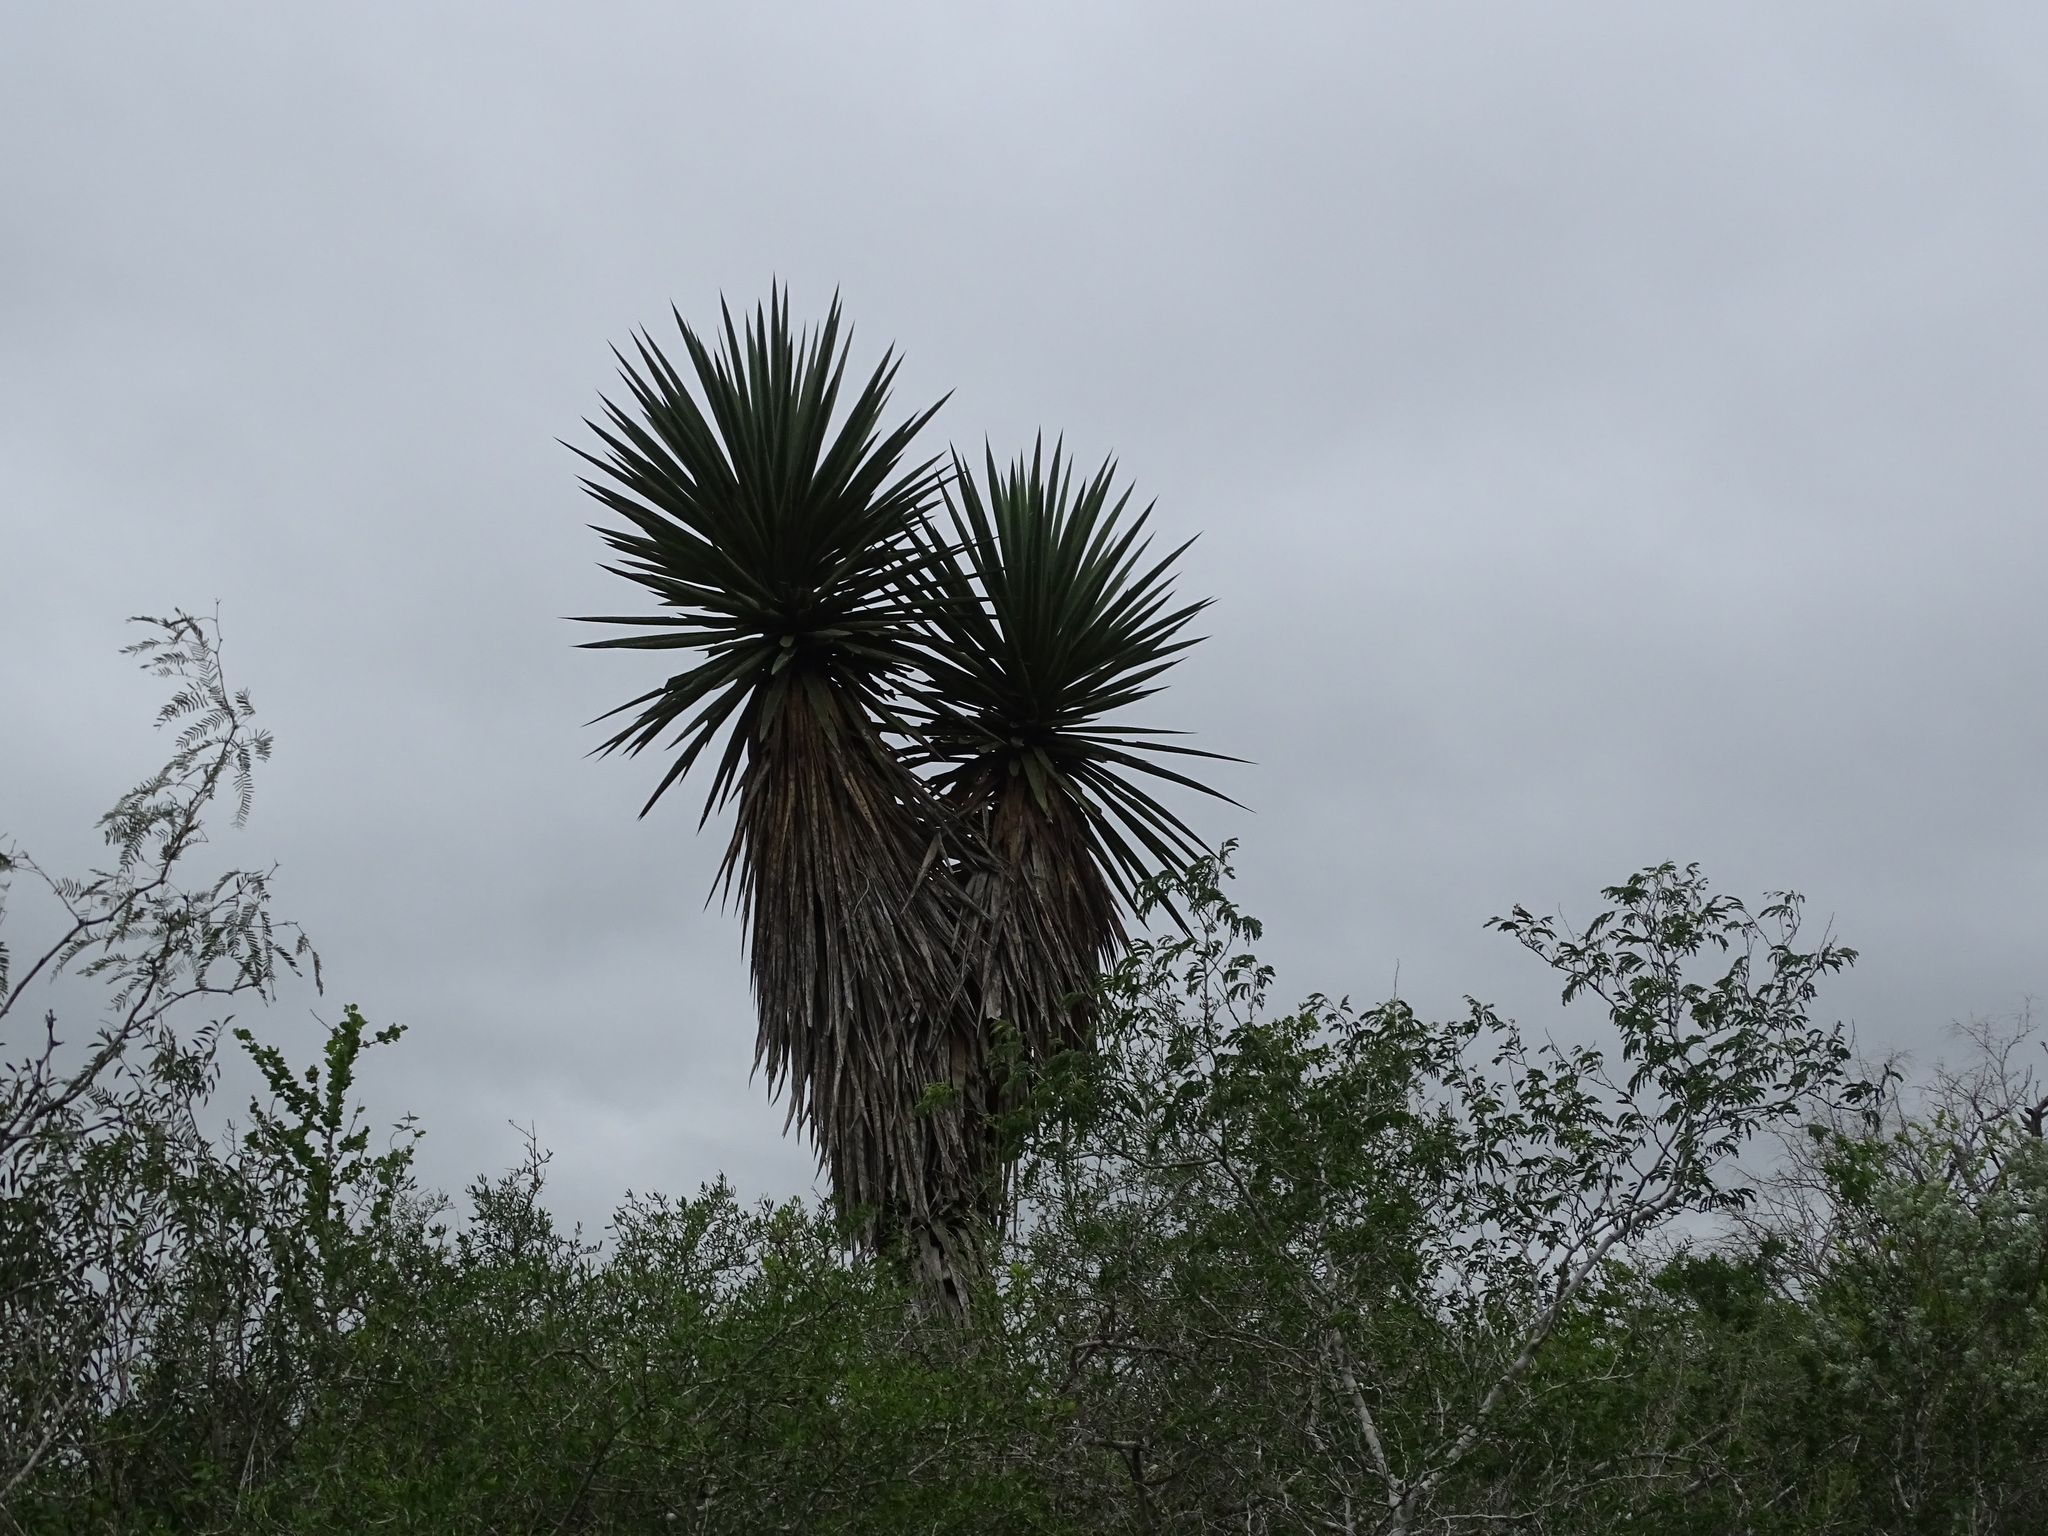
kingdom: Plantae
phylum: Tracheophyta
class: Liliopsida
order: Asparagales
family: Asparagaceae
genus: Yucca
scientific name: Yucca treculiana
